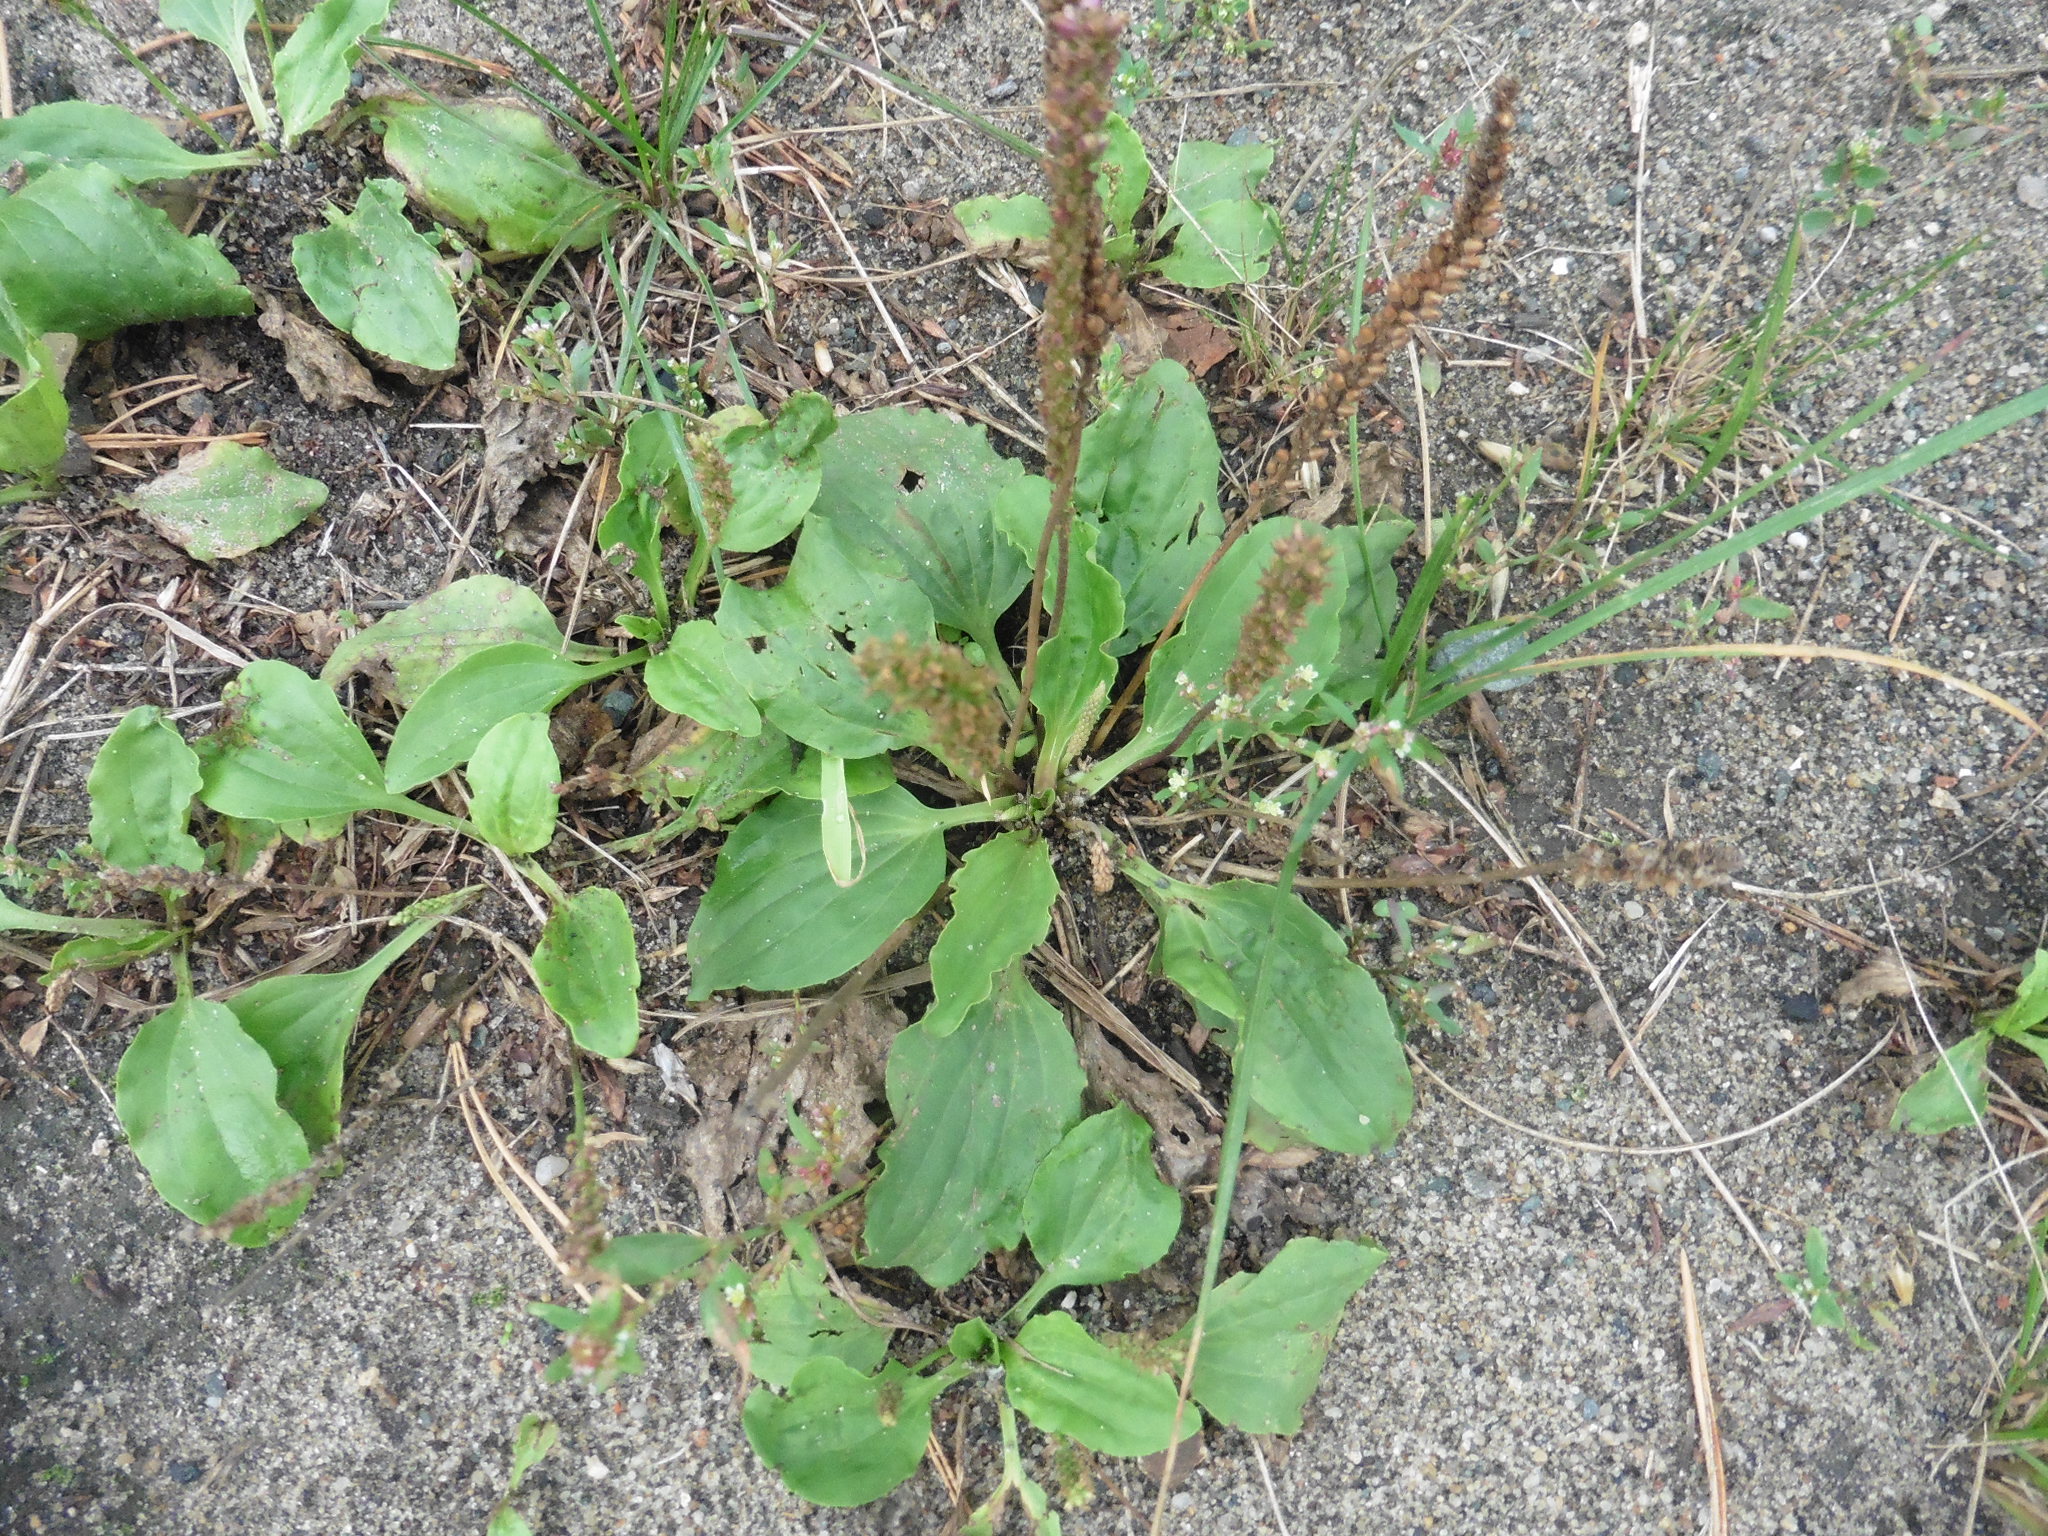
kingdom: Plantae
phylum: Tracheophyta
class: Magnoliopsida
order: Lamiales
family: Plantaginaceae
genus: Plantago
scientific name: Plantago major
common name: Common plantain
